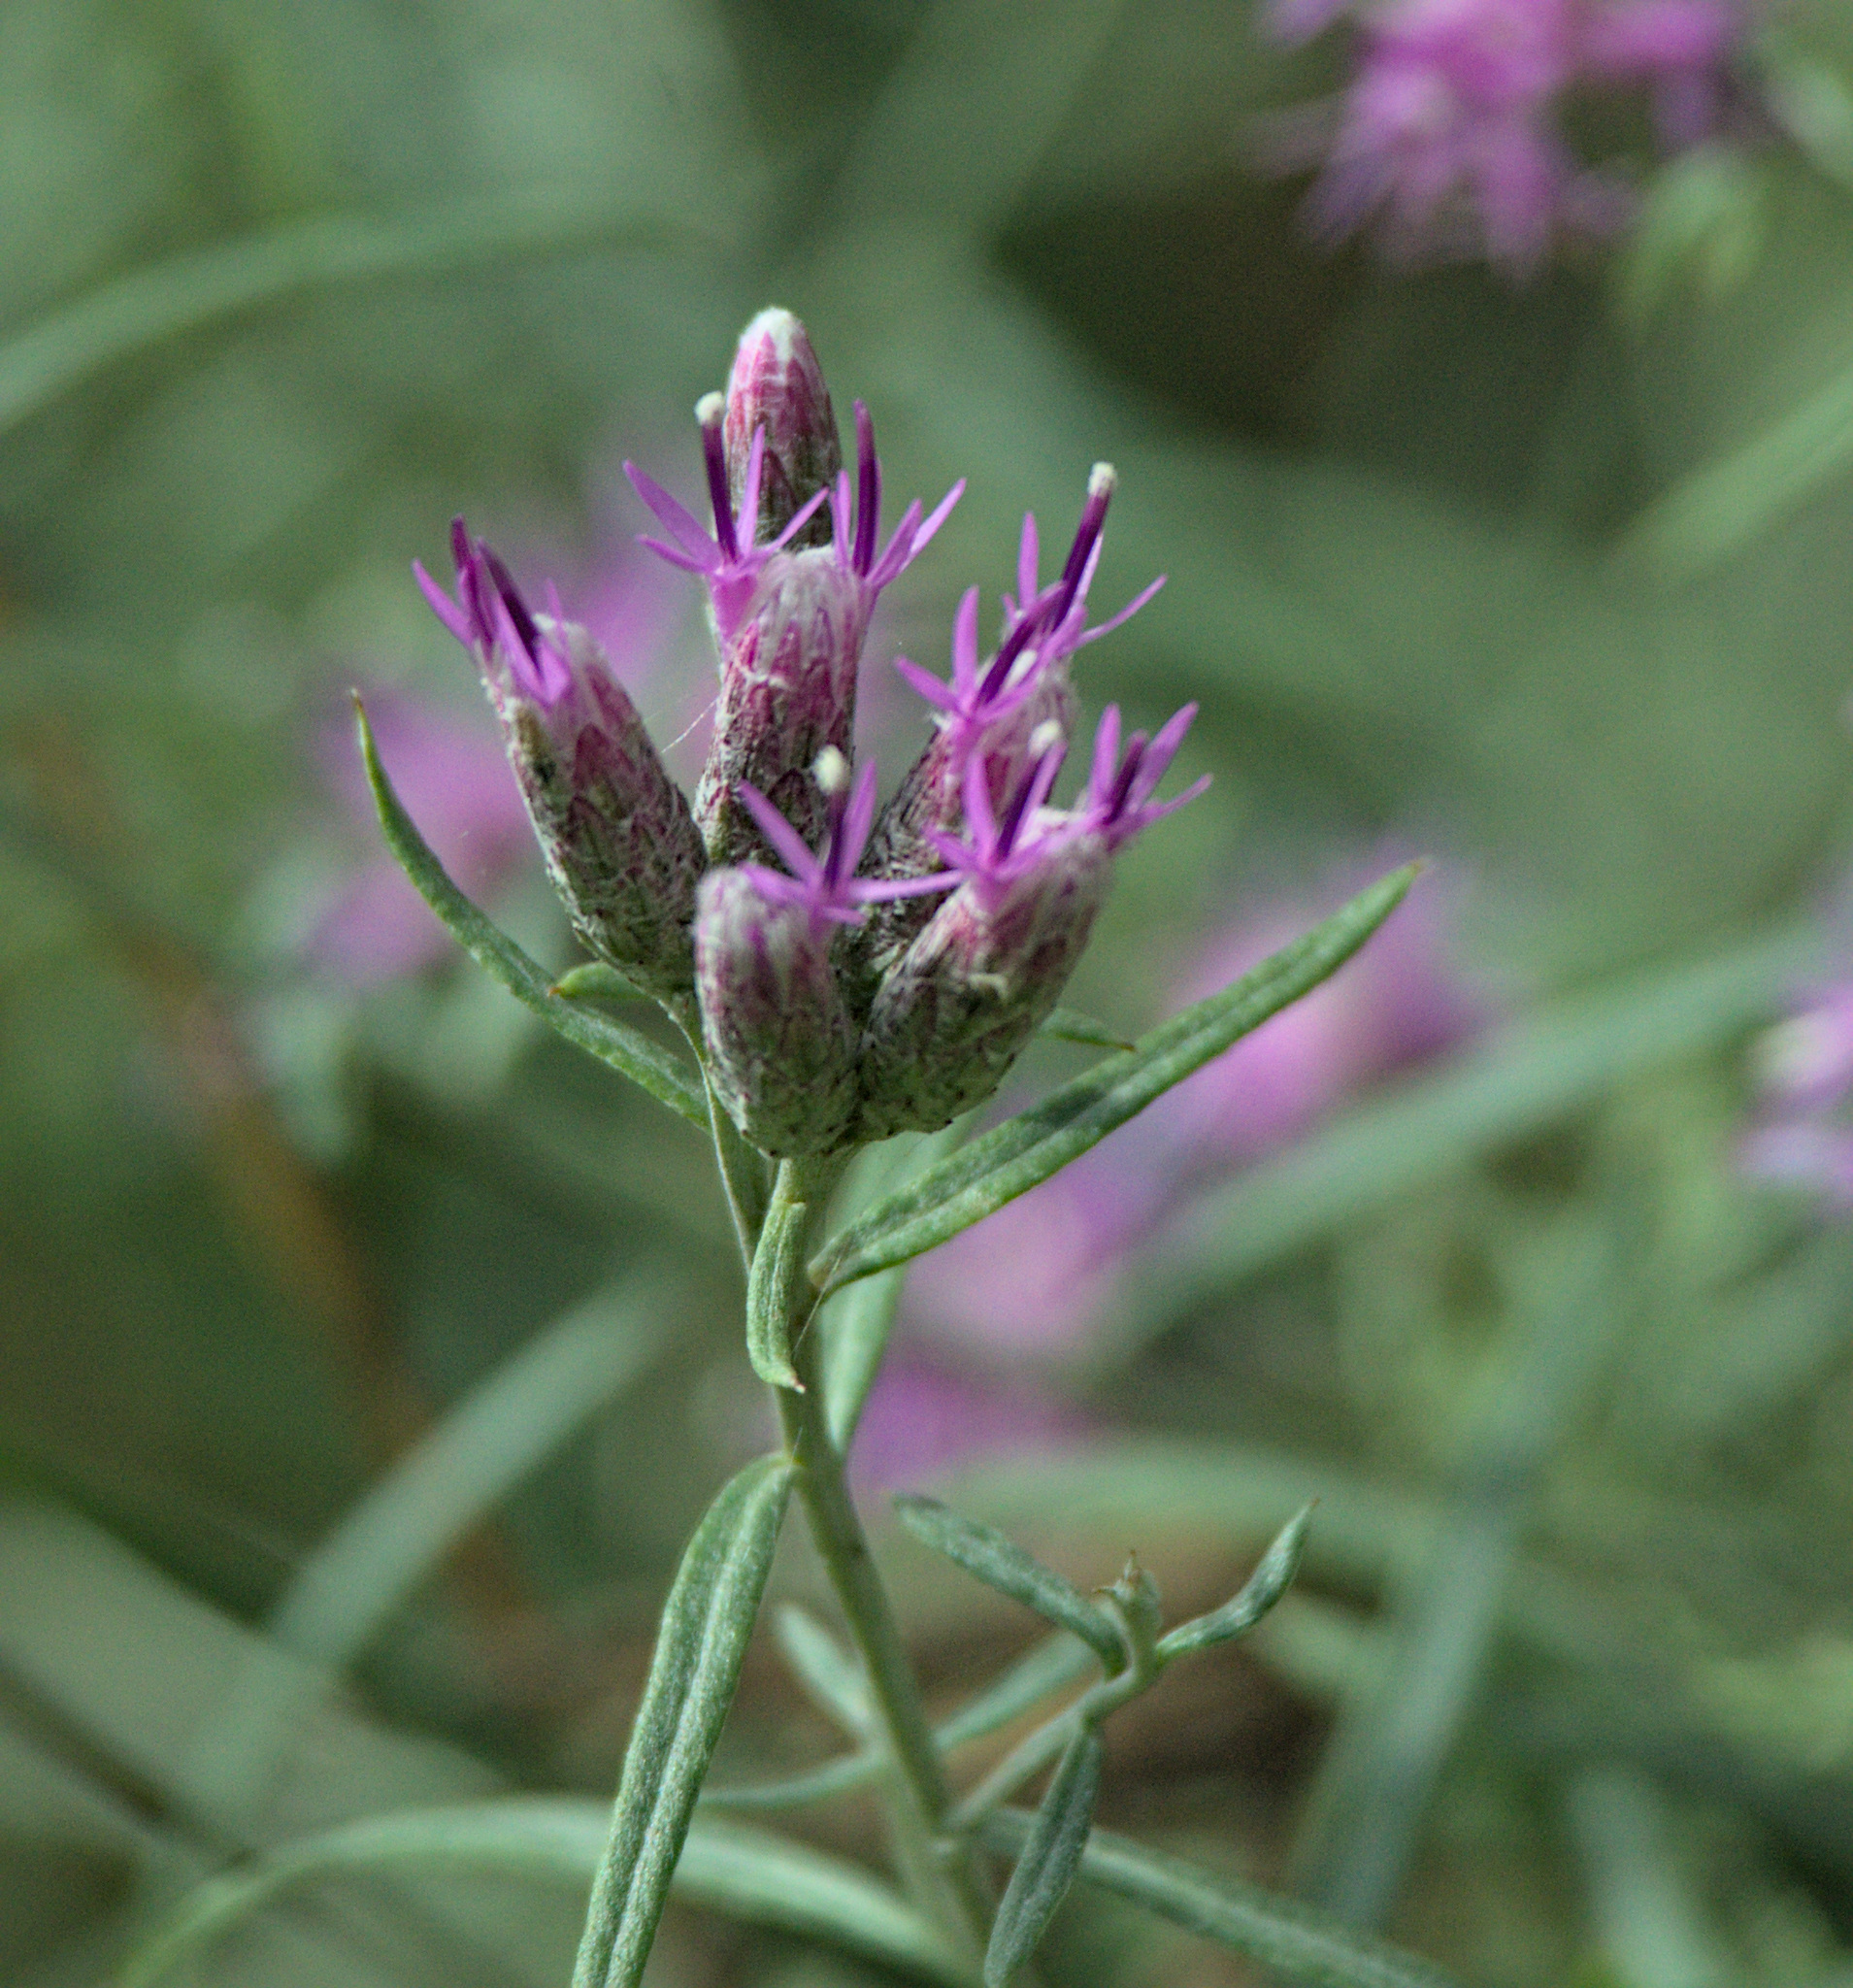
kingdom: Plantae
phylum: Tracheophyta
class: Magnoliopsida
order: Asterales
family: Asteraceae
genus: Saussurea
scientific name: Saussurea salicifolia
